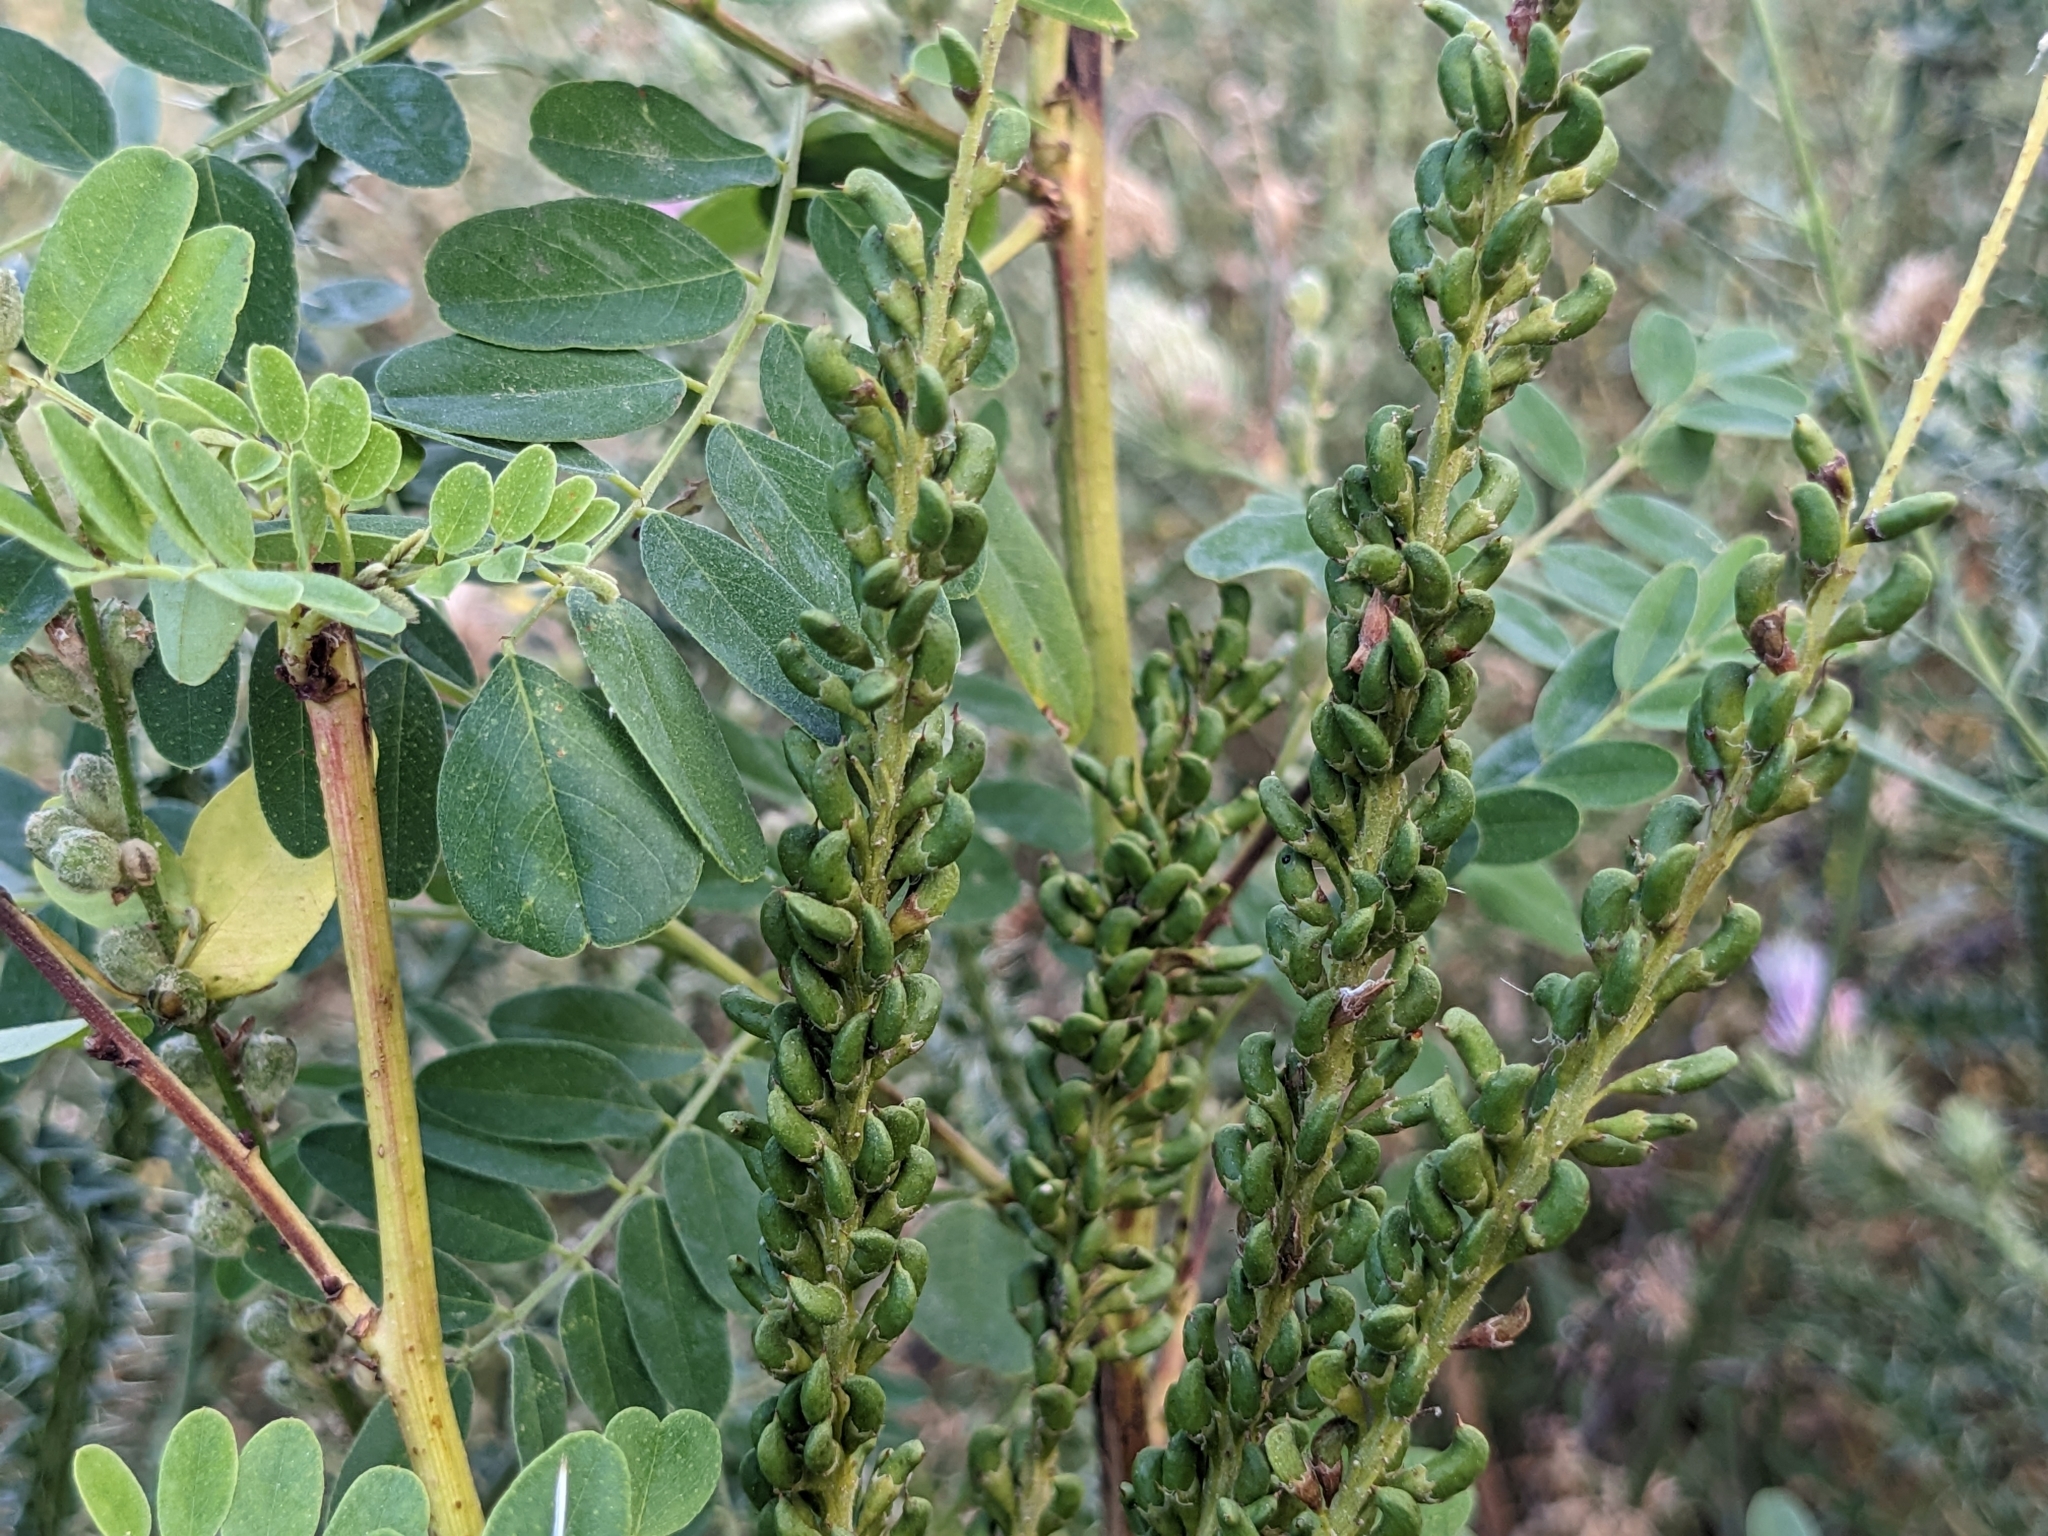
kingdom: Plantae
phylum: Tracheophyta
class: Magnoliopsida
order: Fabales
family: Fabaceae
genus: Amorpha
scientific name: Amorpha fruticosa
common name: False indigo
